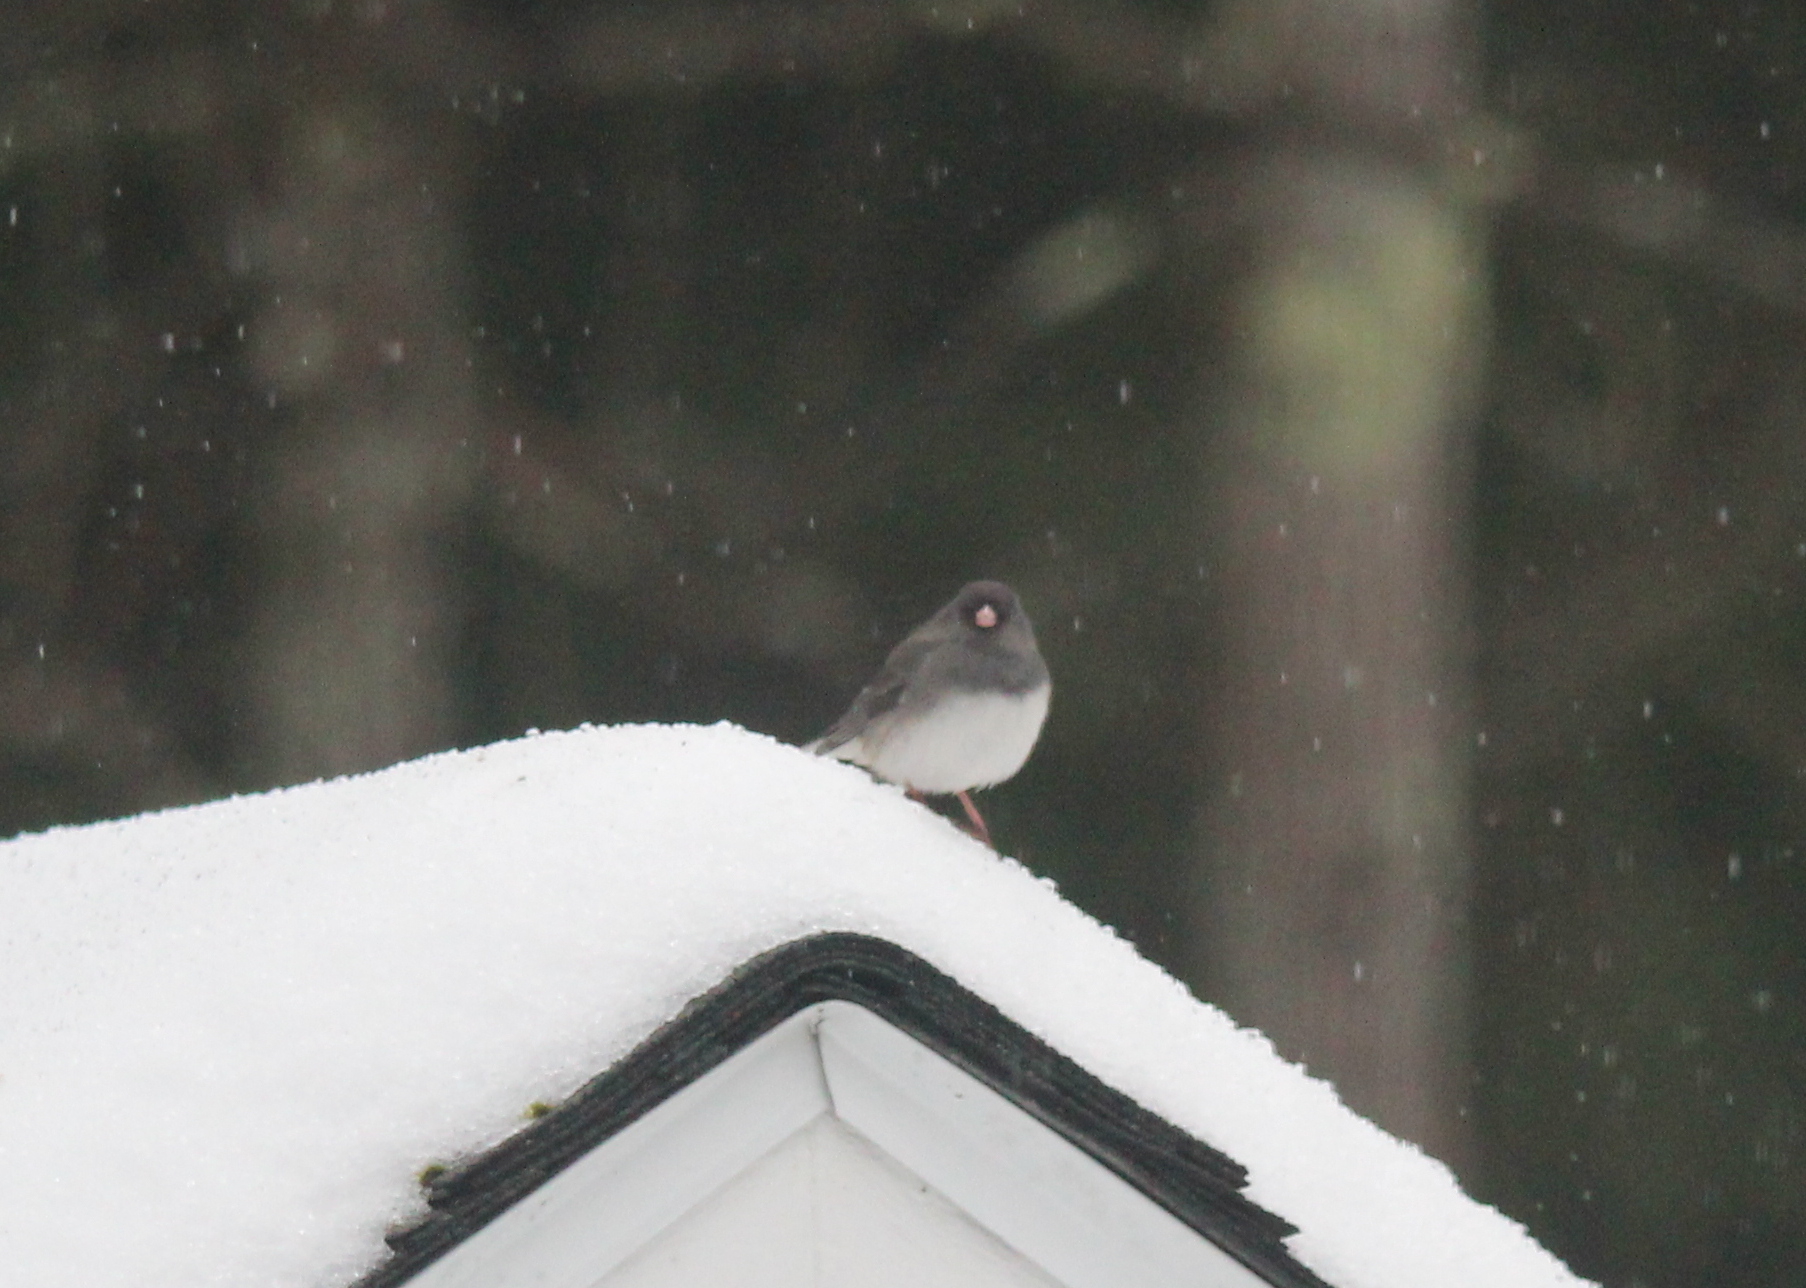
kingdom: Animalia
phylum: Chordata
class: Aves
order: Passeriformes
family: Passerellidae
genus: Junco
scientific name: Junco hyemalis
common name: Dark-eyed junco
